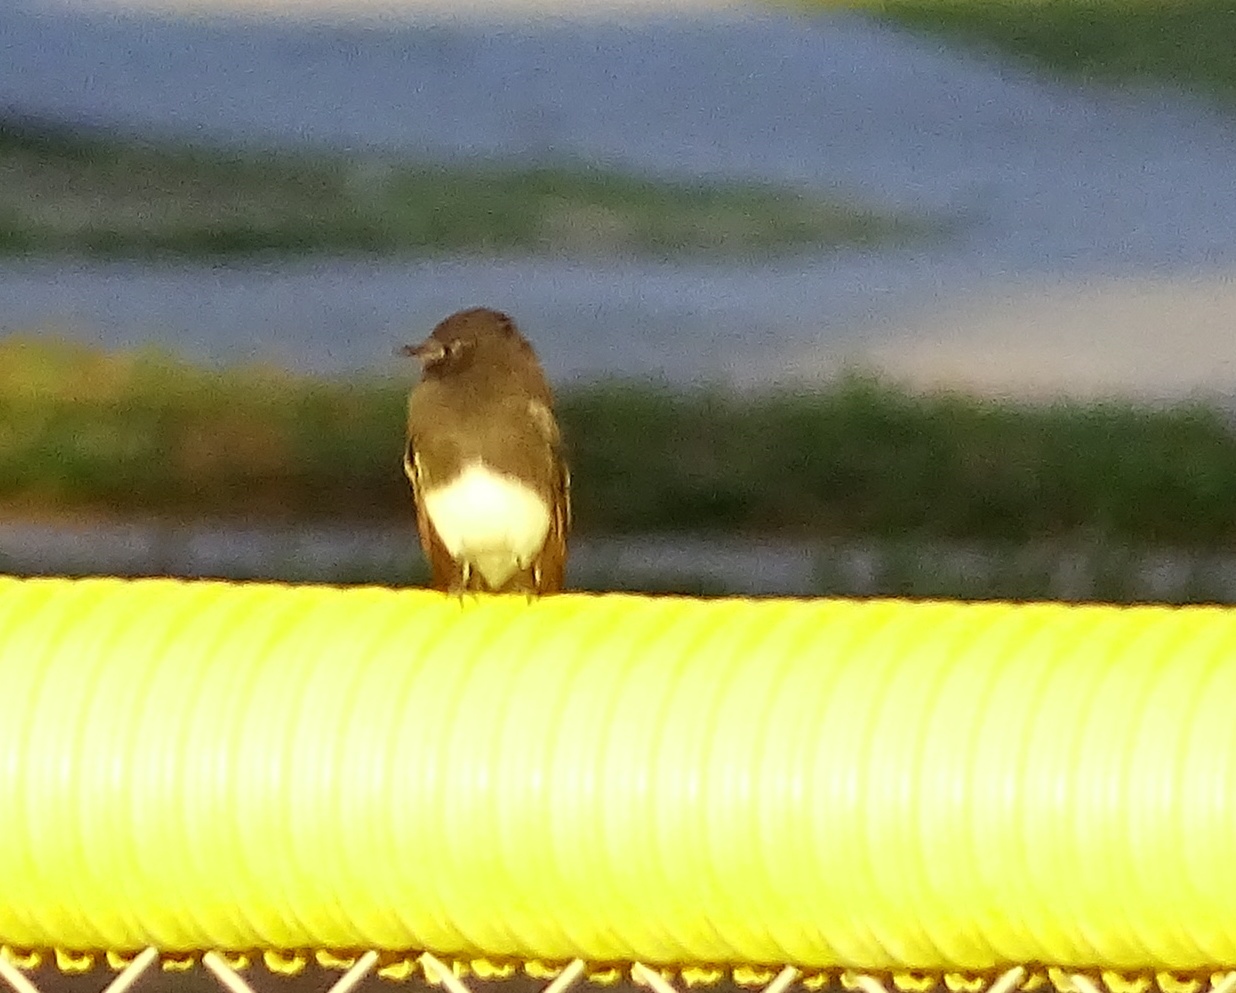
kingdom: Animalia
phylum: Chordata
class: Aves
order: Passeriformes
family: Tyrannidae
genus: Sayornis
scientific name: Sayornis nigricans
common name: Black phoebe
